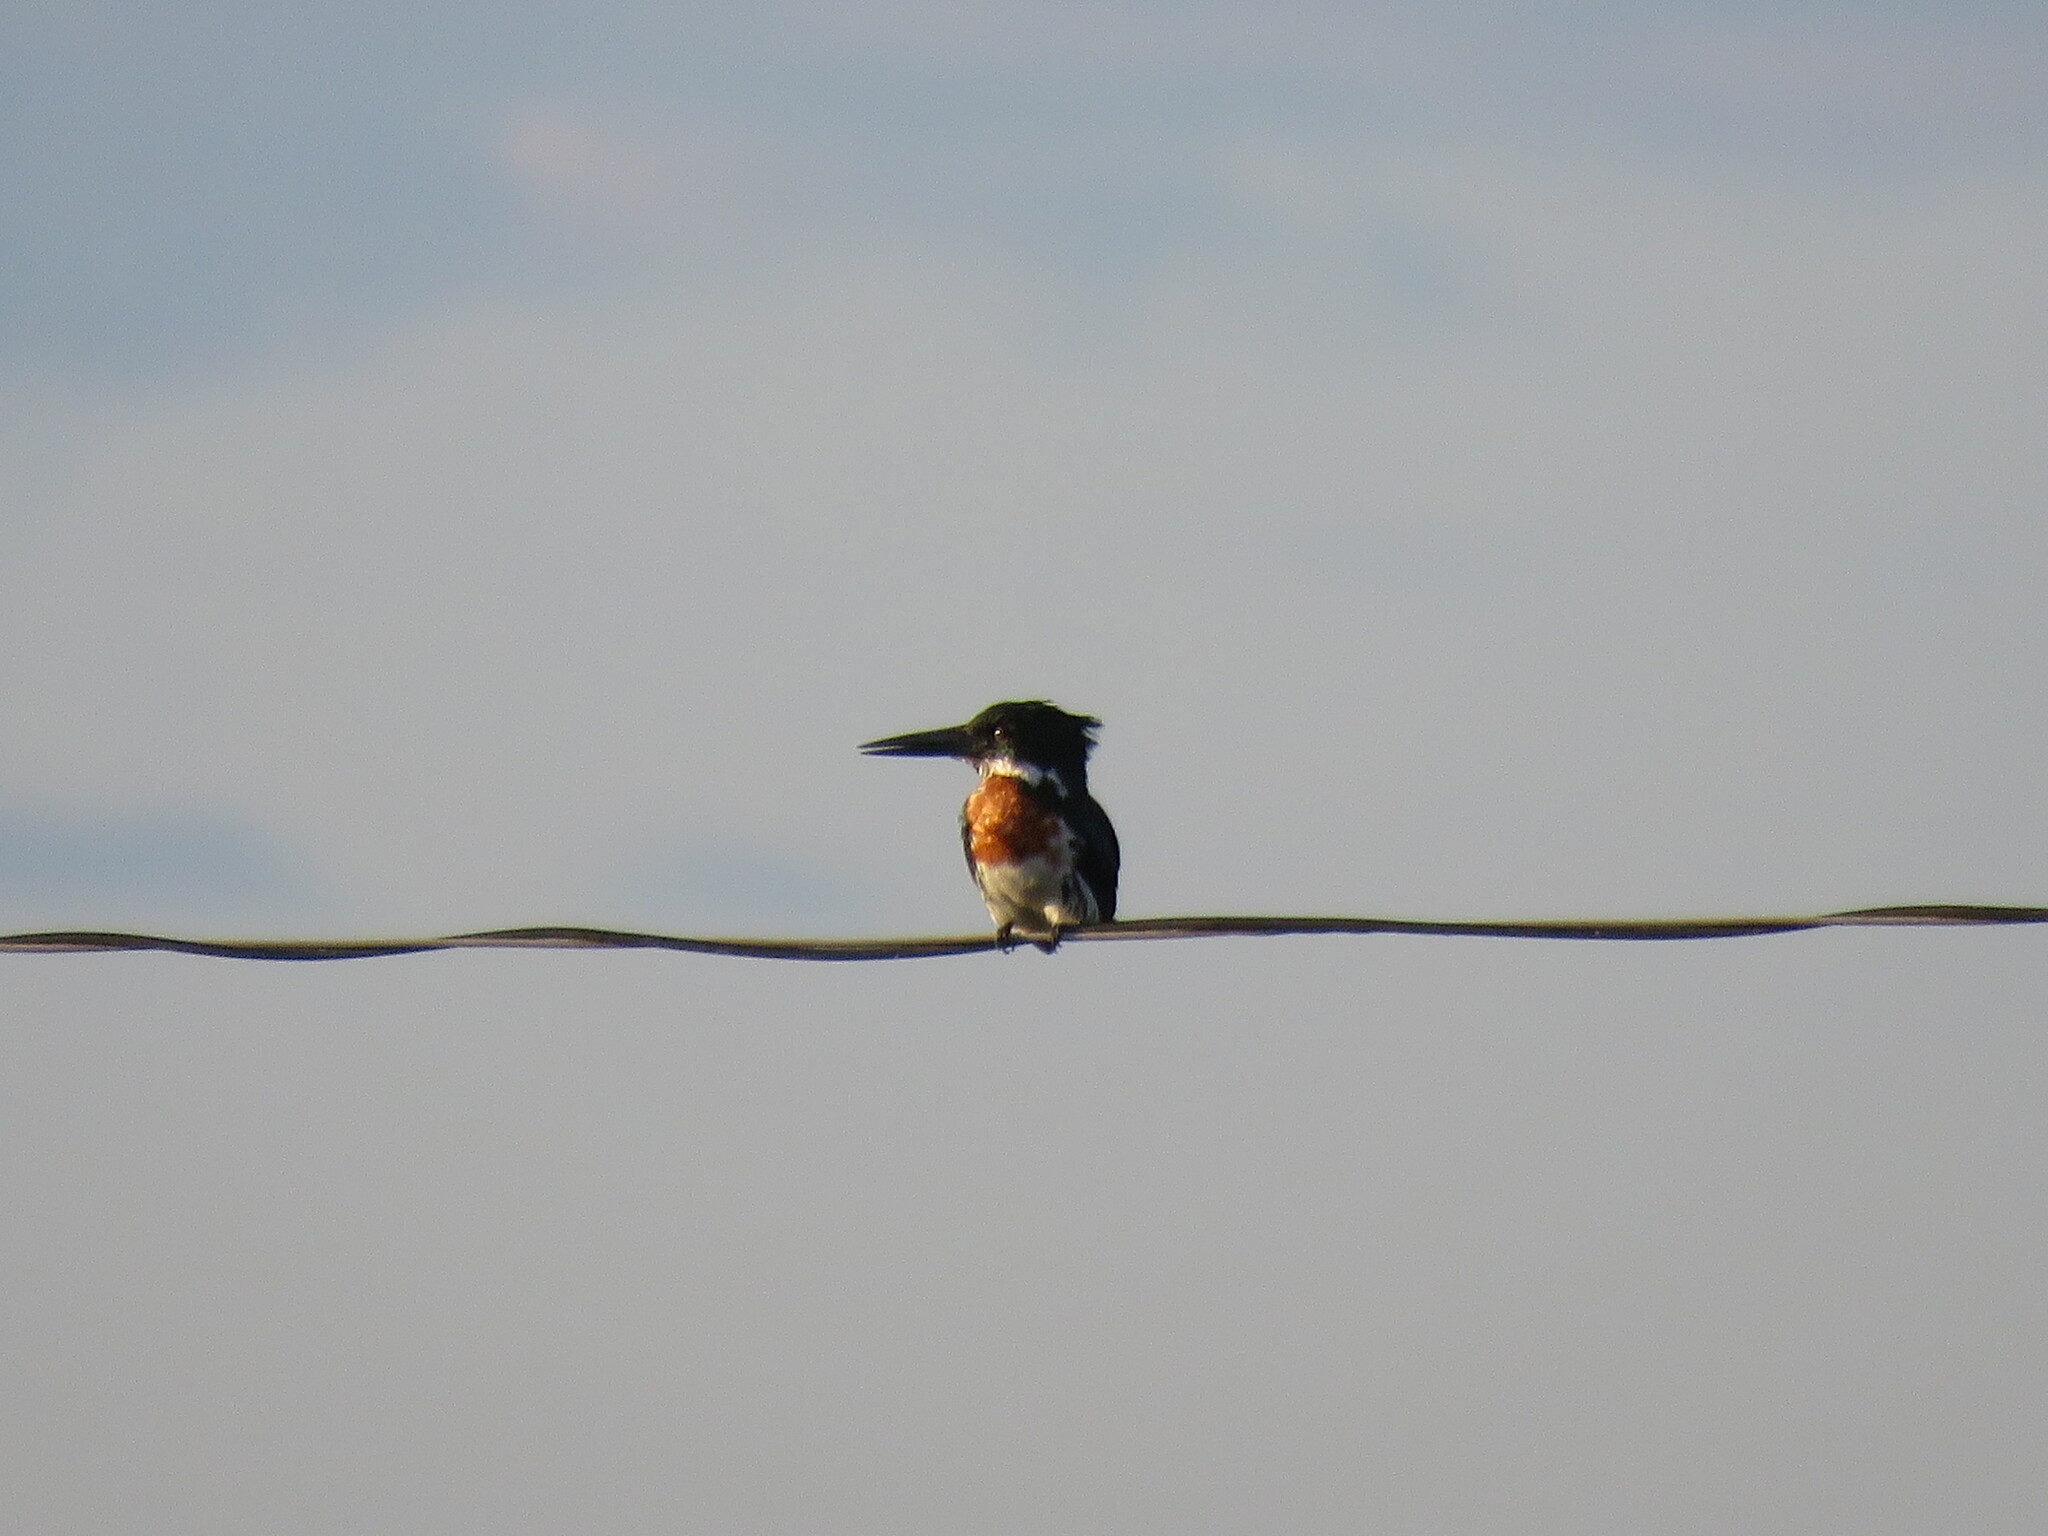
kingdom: Animalia
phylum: Chordata
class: Aves
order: Coraciiformes
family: Alcedinidae
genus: Chloroceryle
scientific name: Chloroceryle amazona
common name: Amazon kingfisher
